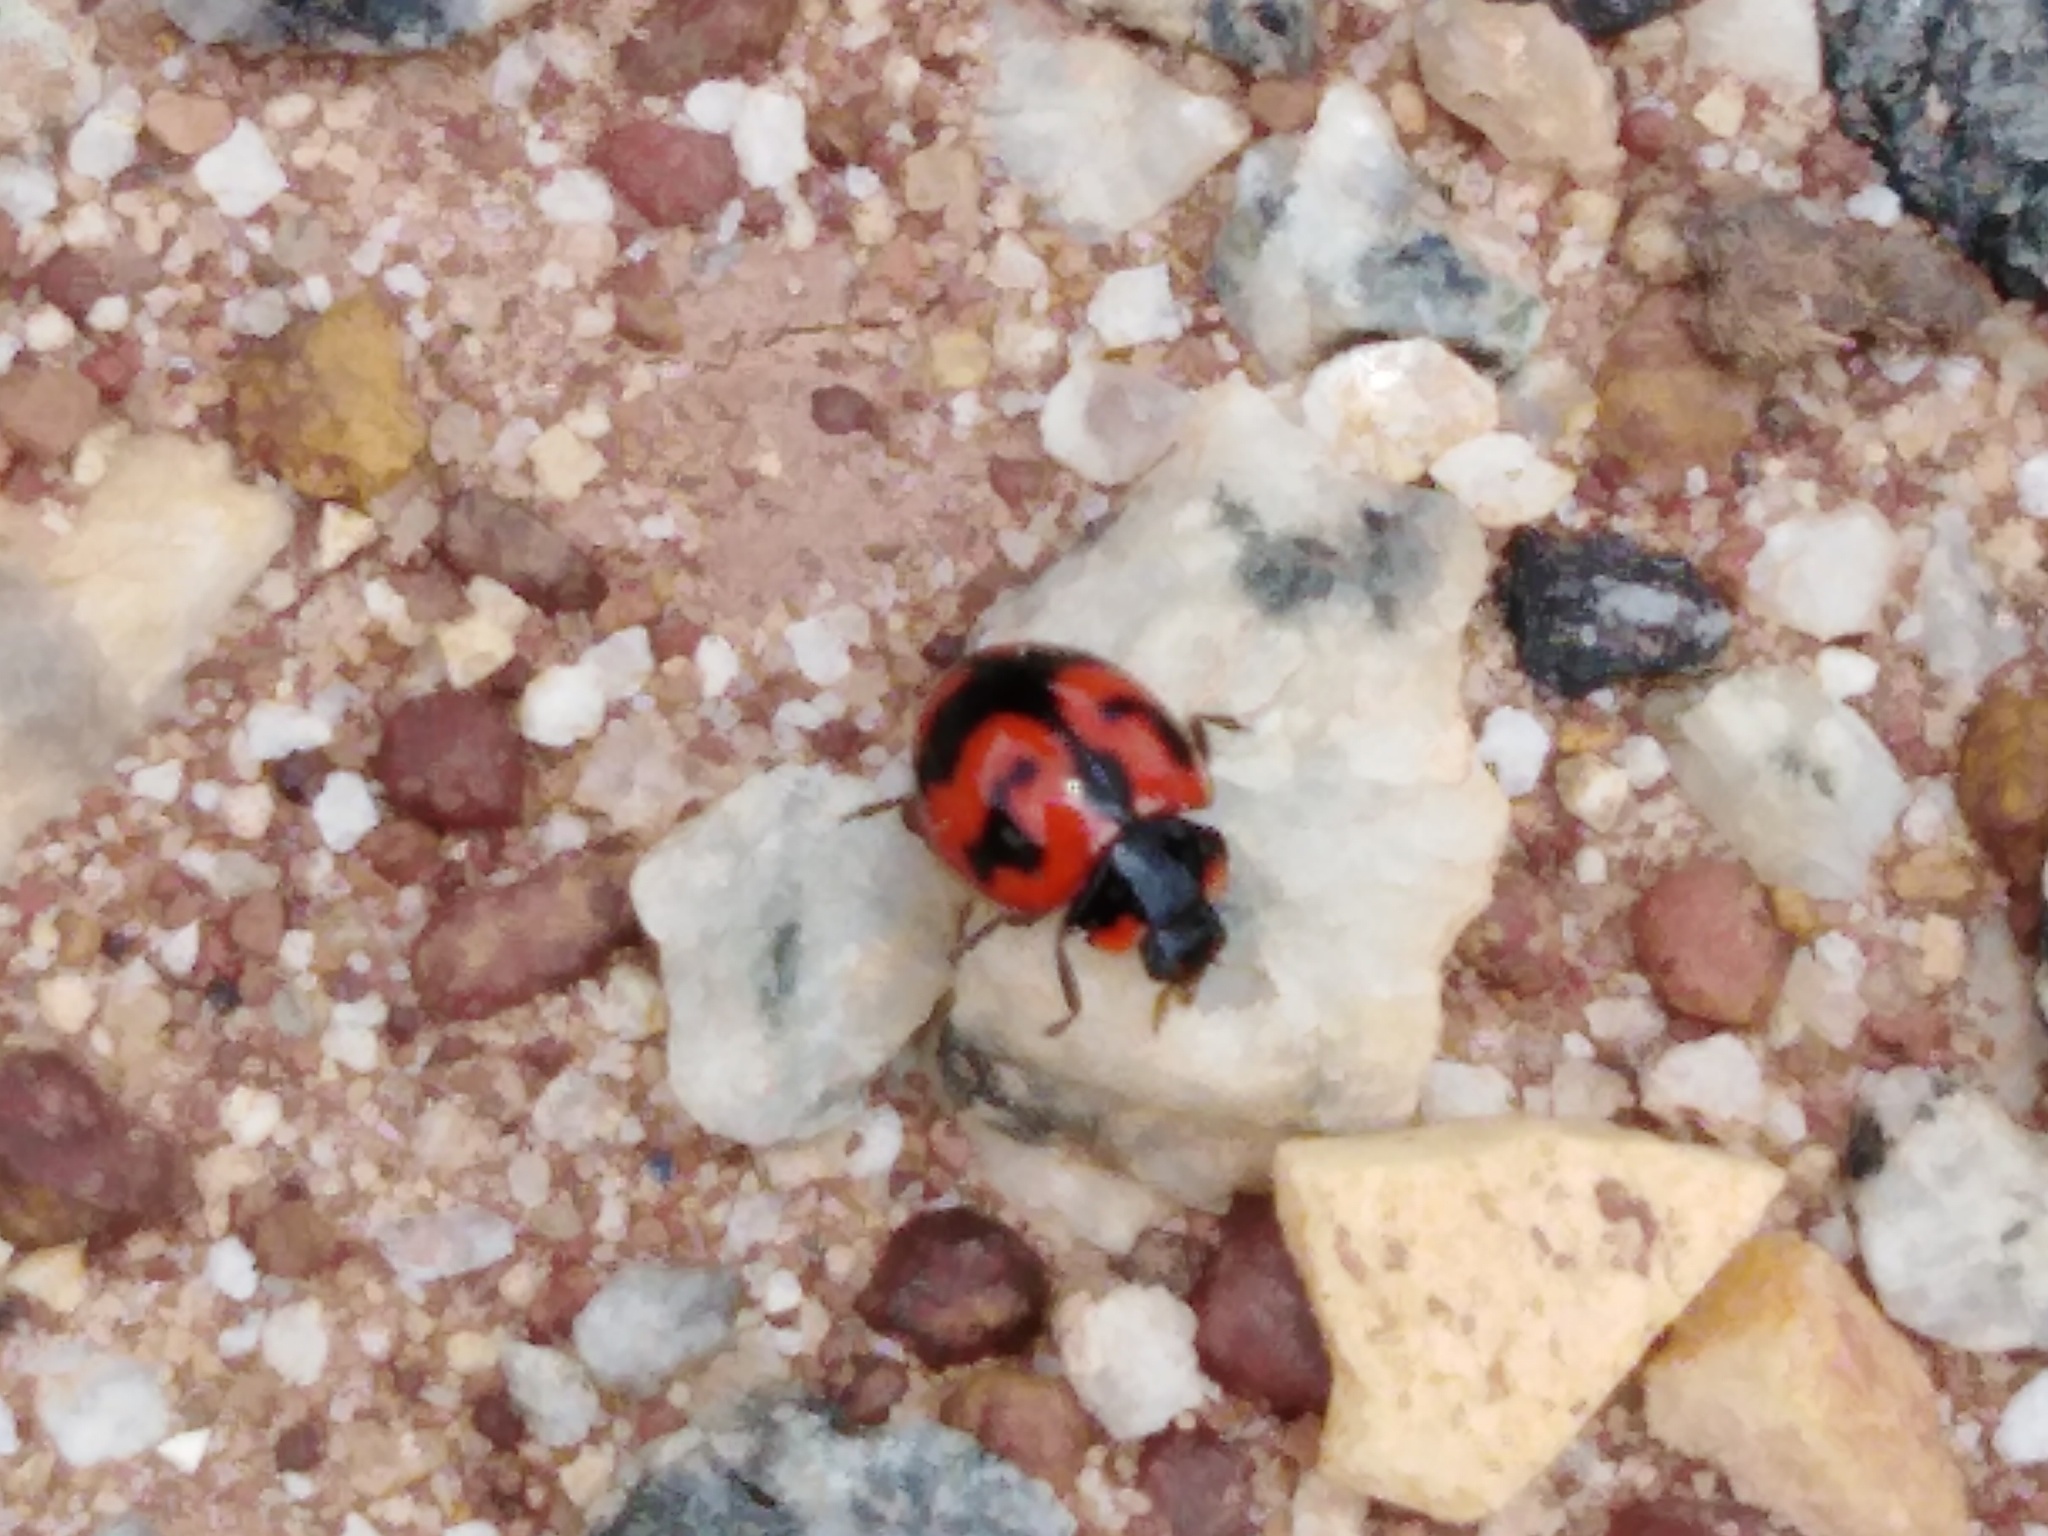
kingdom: Animalia
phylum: Arthropoda
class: Insecta
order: Coleoptera
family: Coccinellidae
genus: Coccinella
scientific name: Coccinella transversalis
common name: Transverse lady beetle
